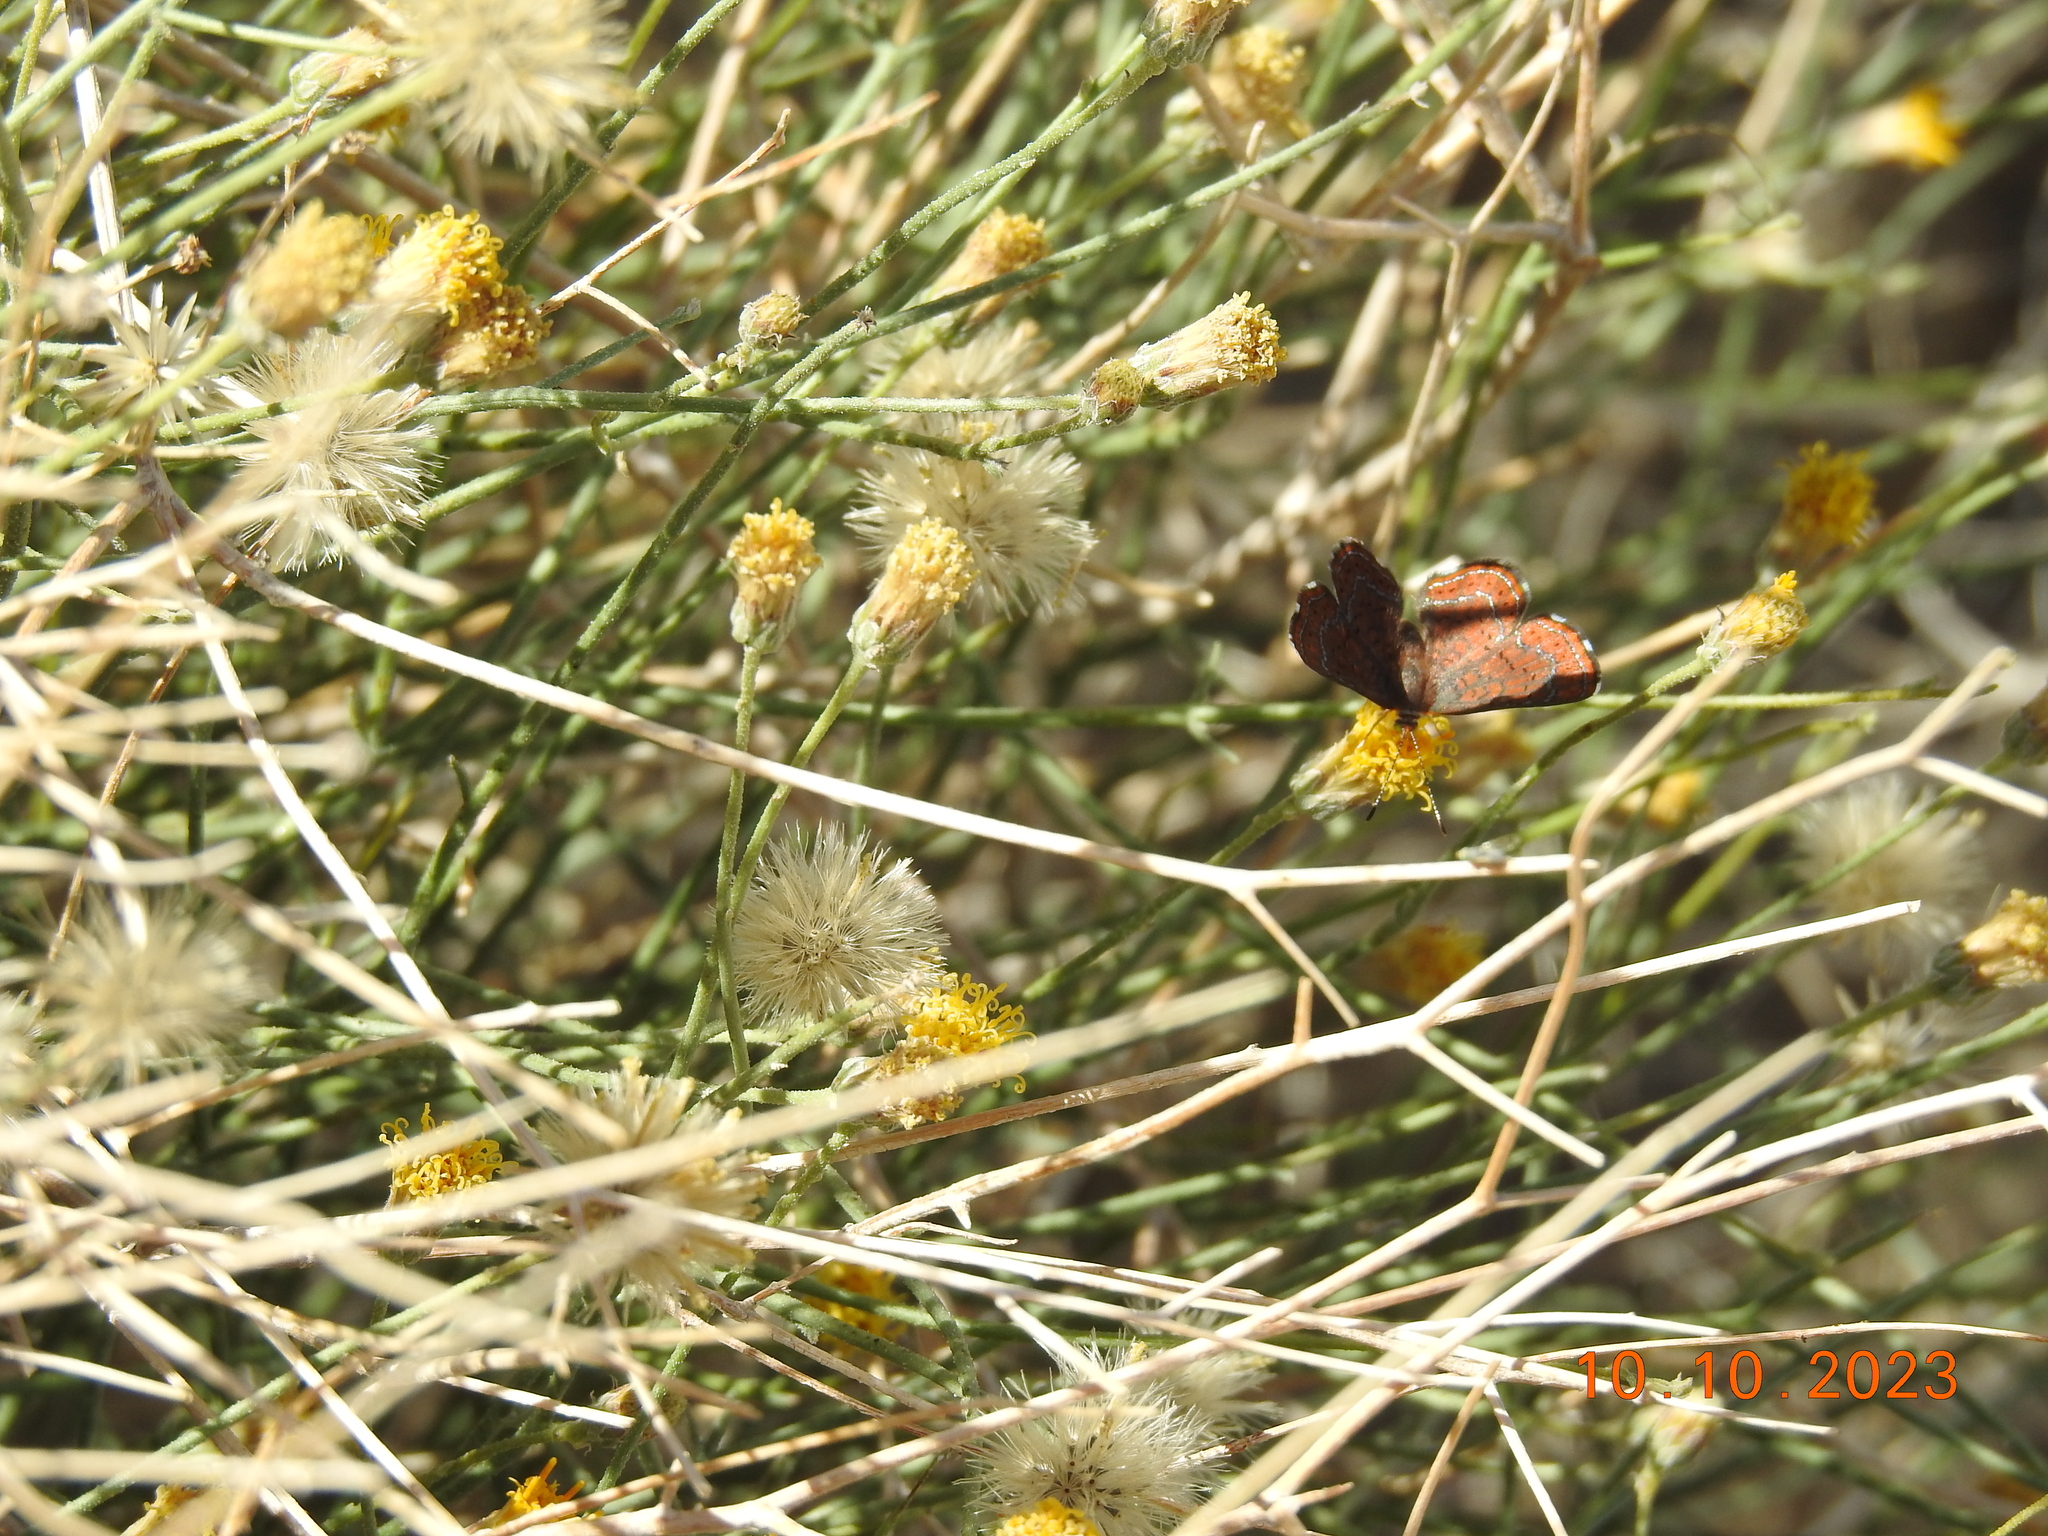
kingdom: Animalia
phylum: Arthropoda
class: Insecta
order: Lepidoptera
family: Lycaenidae
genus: Emesis
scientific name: Emesis wrighti
